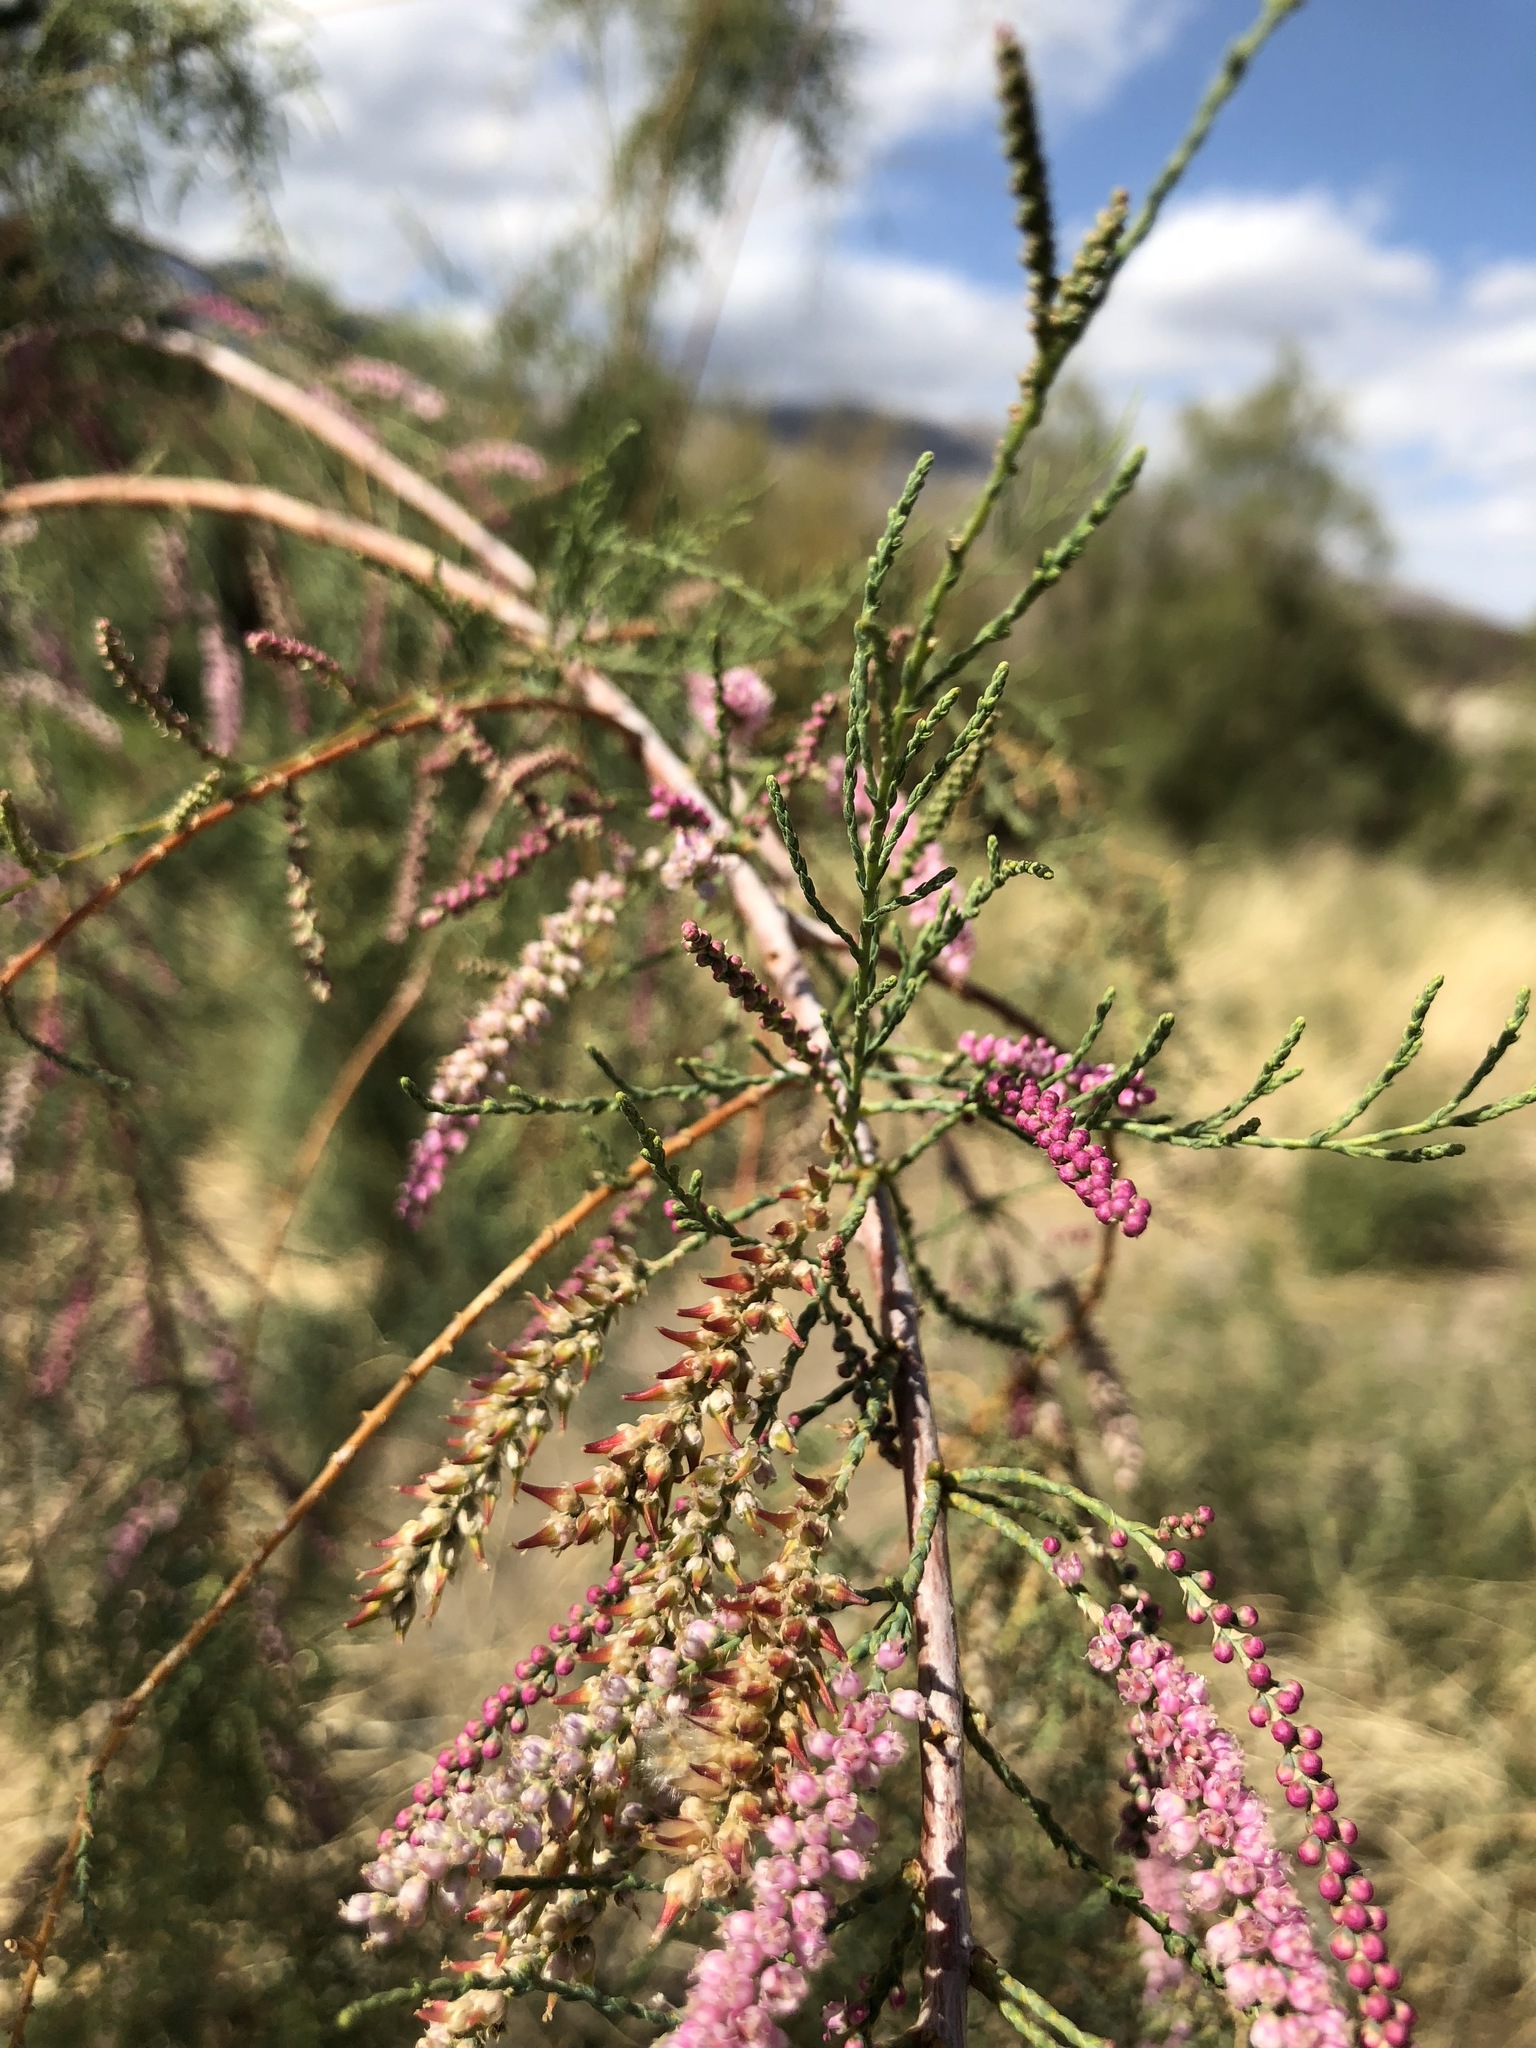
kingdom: Plantae
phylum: Tracheophyta
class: Magnoliopsida
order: Caryophyllales
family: Tamaricaceae
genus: Tamarix
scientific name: Tamarix ramosissima
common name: Pink tamarisk
